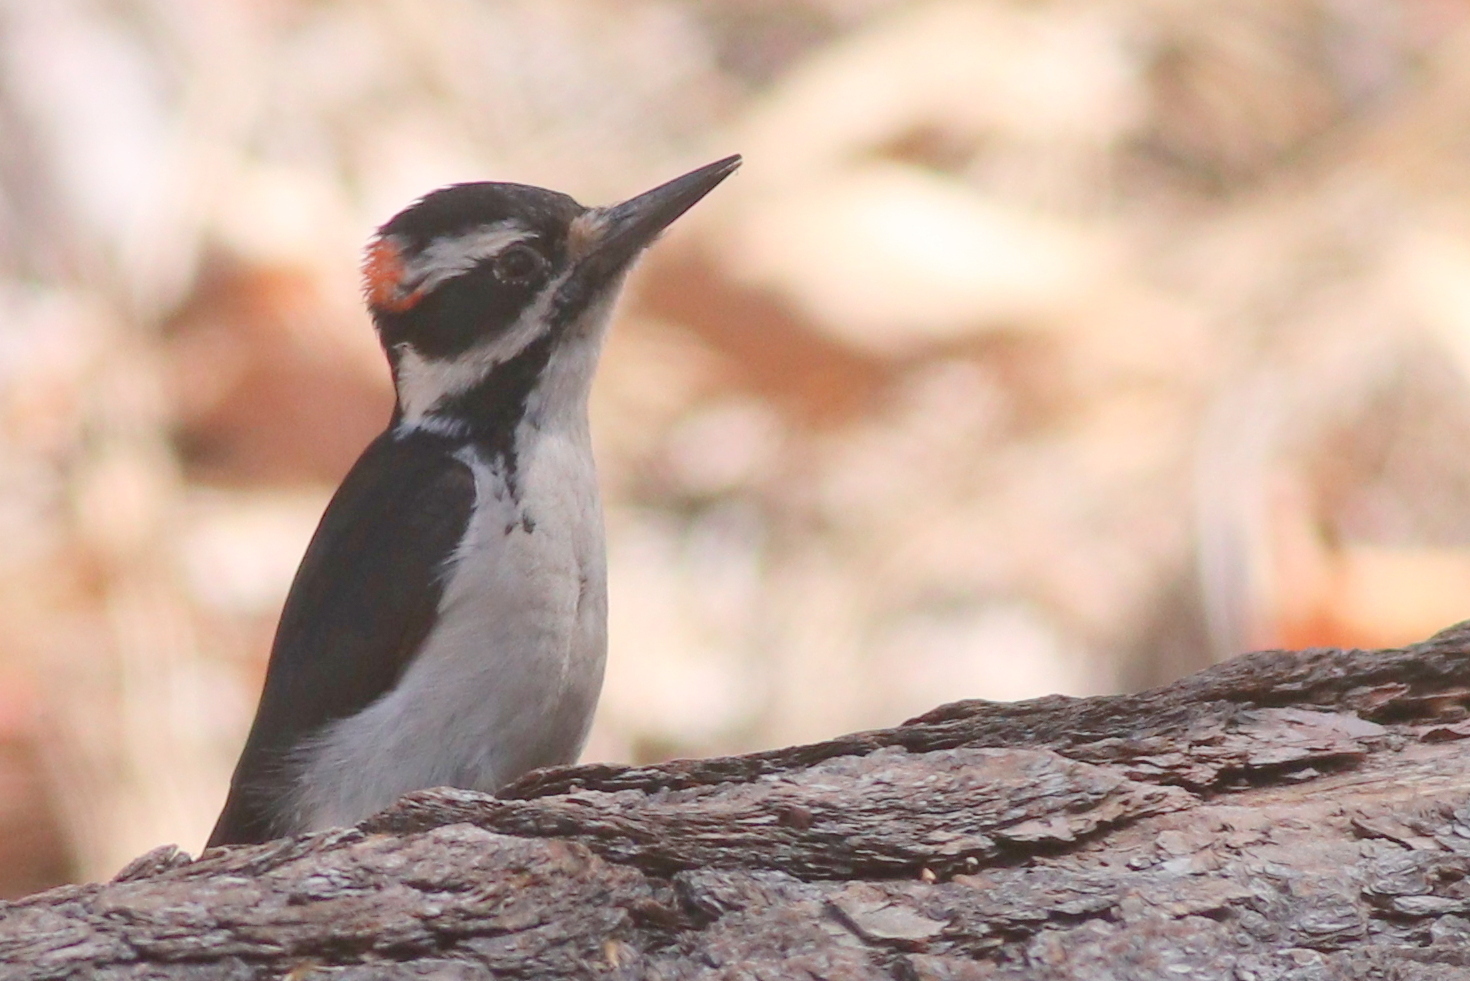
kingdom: Animalia
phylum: Chordata
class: Aves
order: Piciformes
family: Picidae
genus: Leuconotopicus
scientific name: Leuconotopicus villosus
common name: Hairy woodpecker
